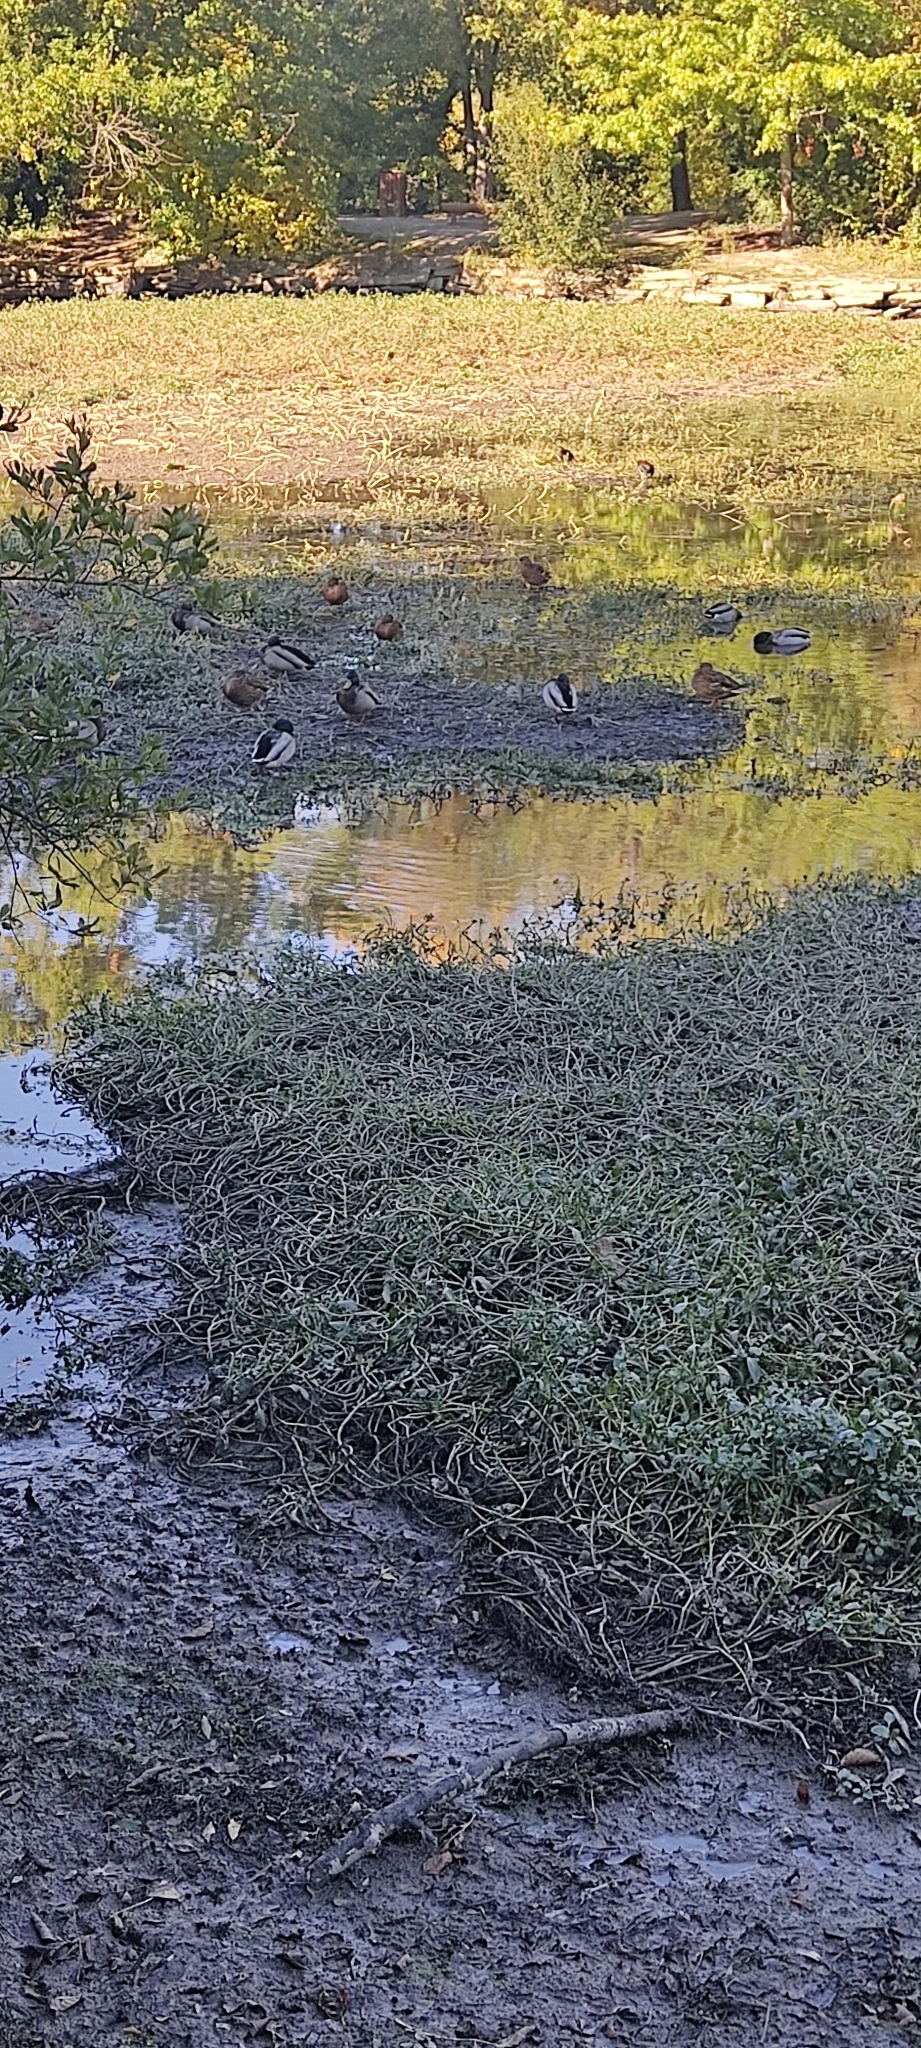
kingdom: Animalia
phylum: Chordata
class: Aves
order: Anseriformes
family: Anatidae
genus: Anas
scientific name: Anas platyrhynchos
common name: Mallard
